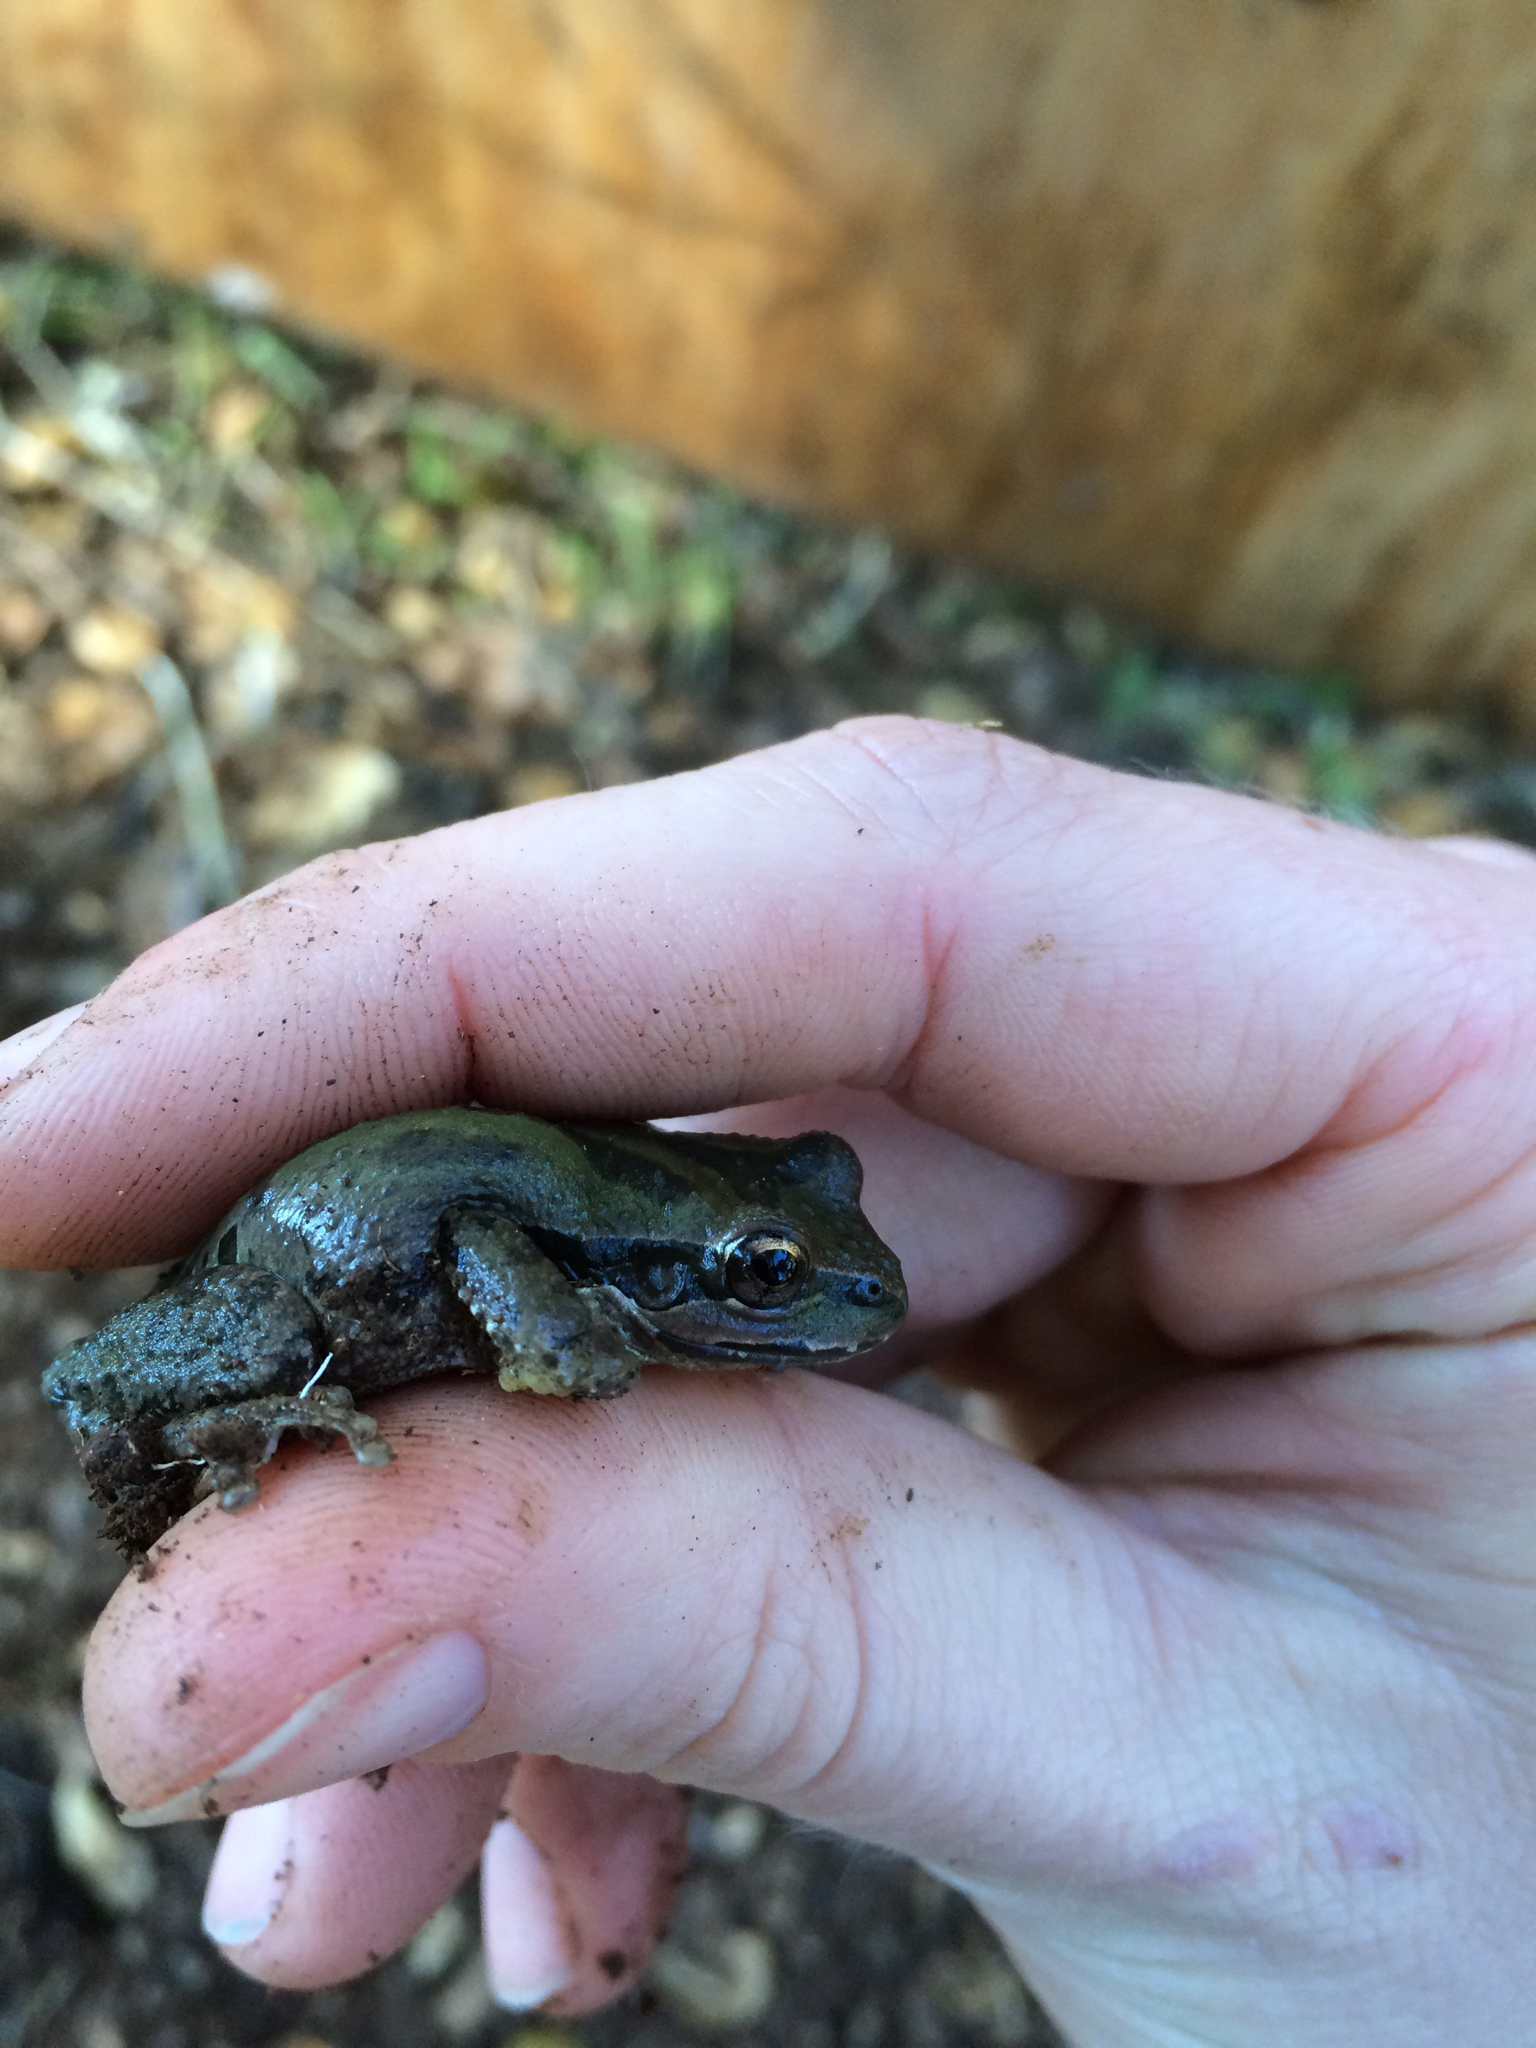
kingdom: Animalia
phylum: Chordata
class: Amphibia
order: Anura
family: Hylidae
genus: Pseudacris
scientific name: Pseudacris regilla
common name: Pacific chorus frog
